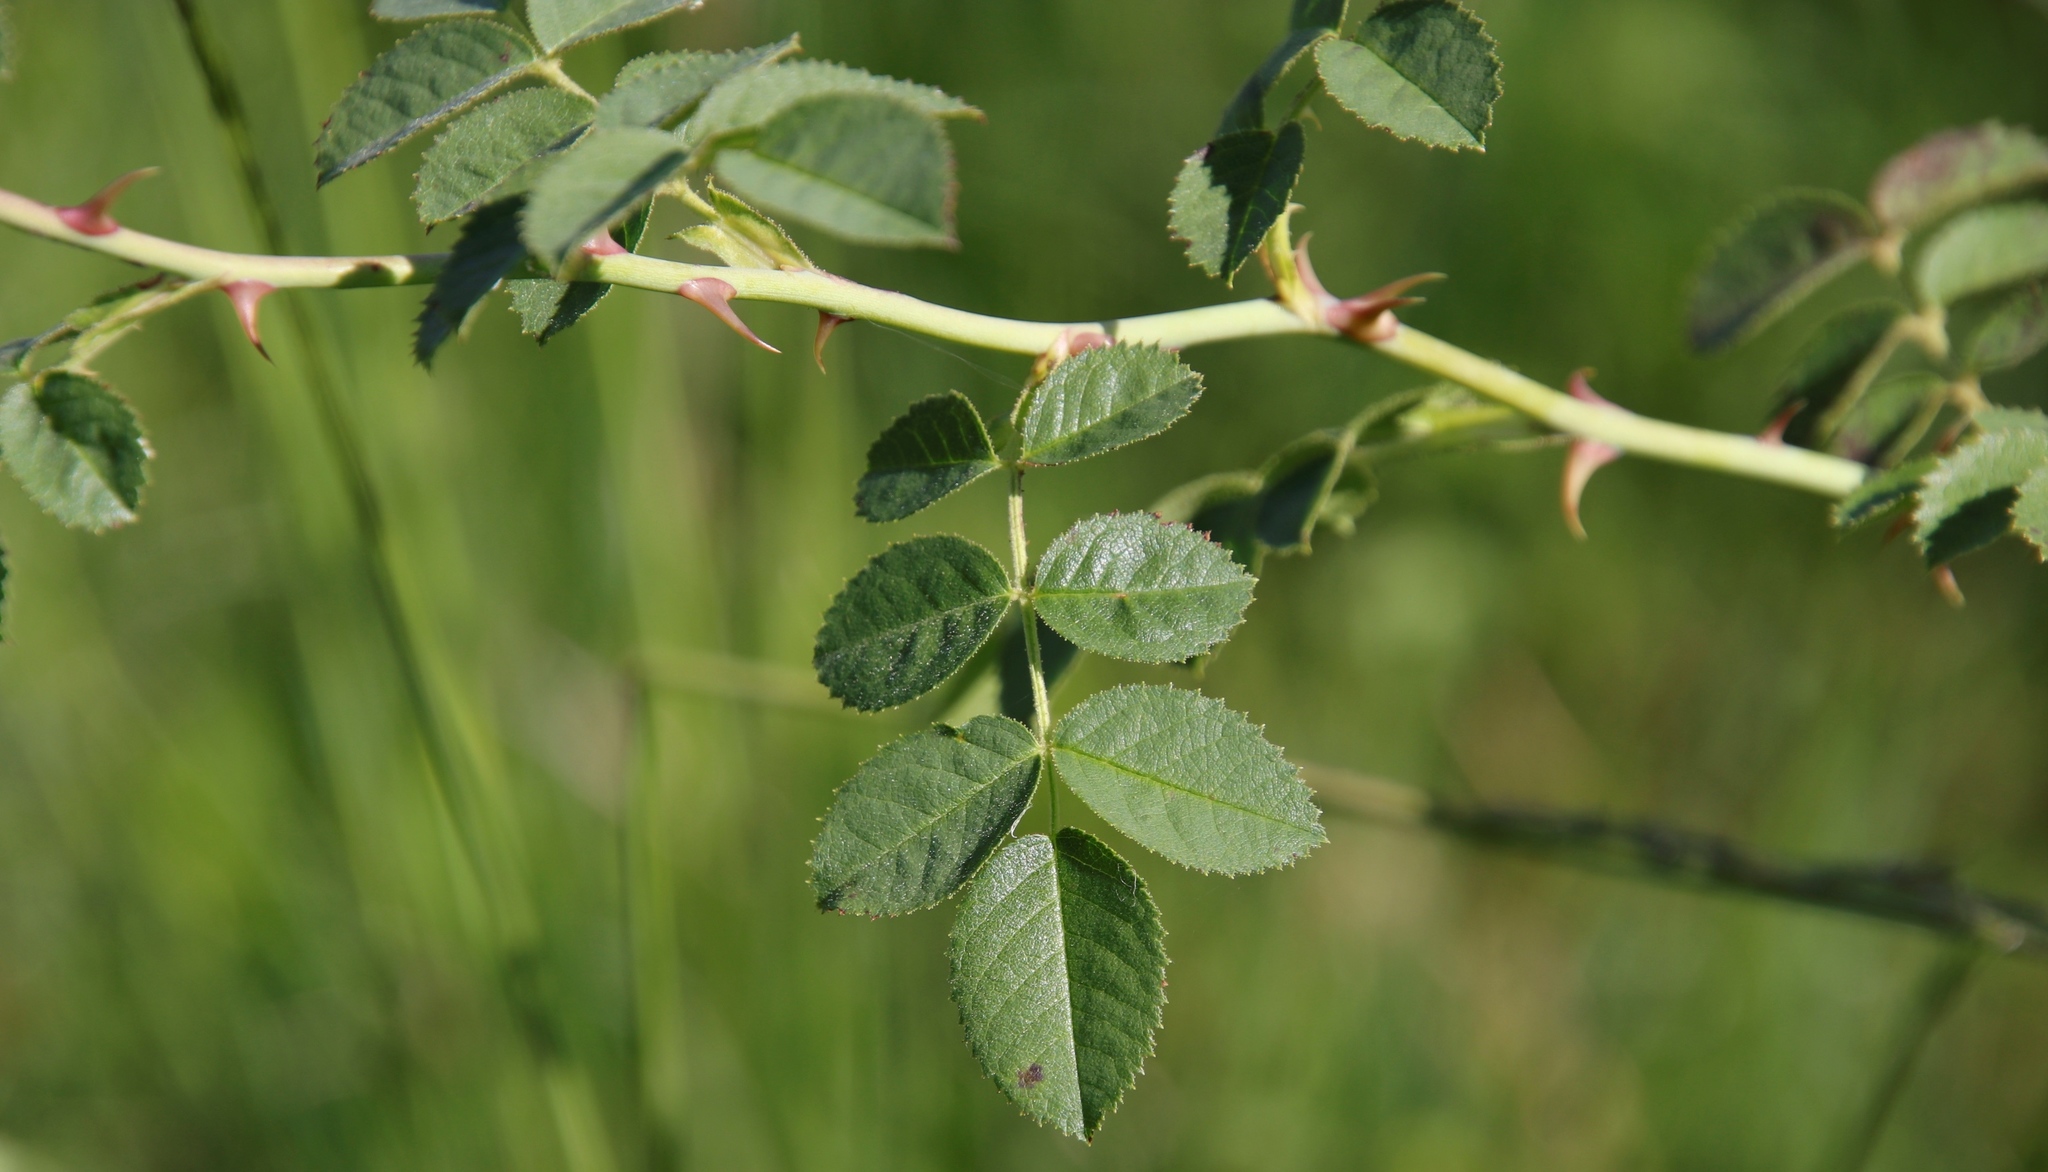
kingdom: Plantae
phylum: Tracheophyta
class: Magnoliopsida
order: Rosales
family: Rosaceae
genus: Rosa
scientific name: Rosa rubiginosa
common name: Sweet-briar
